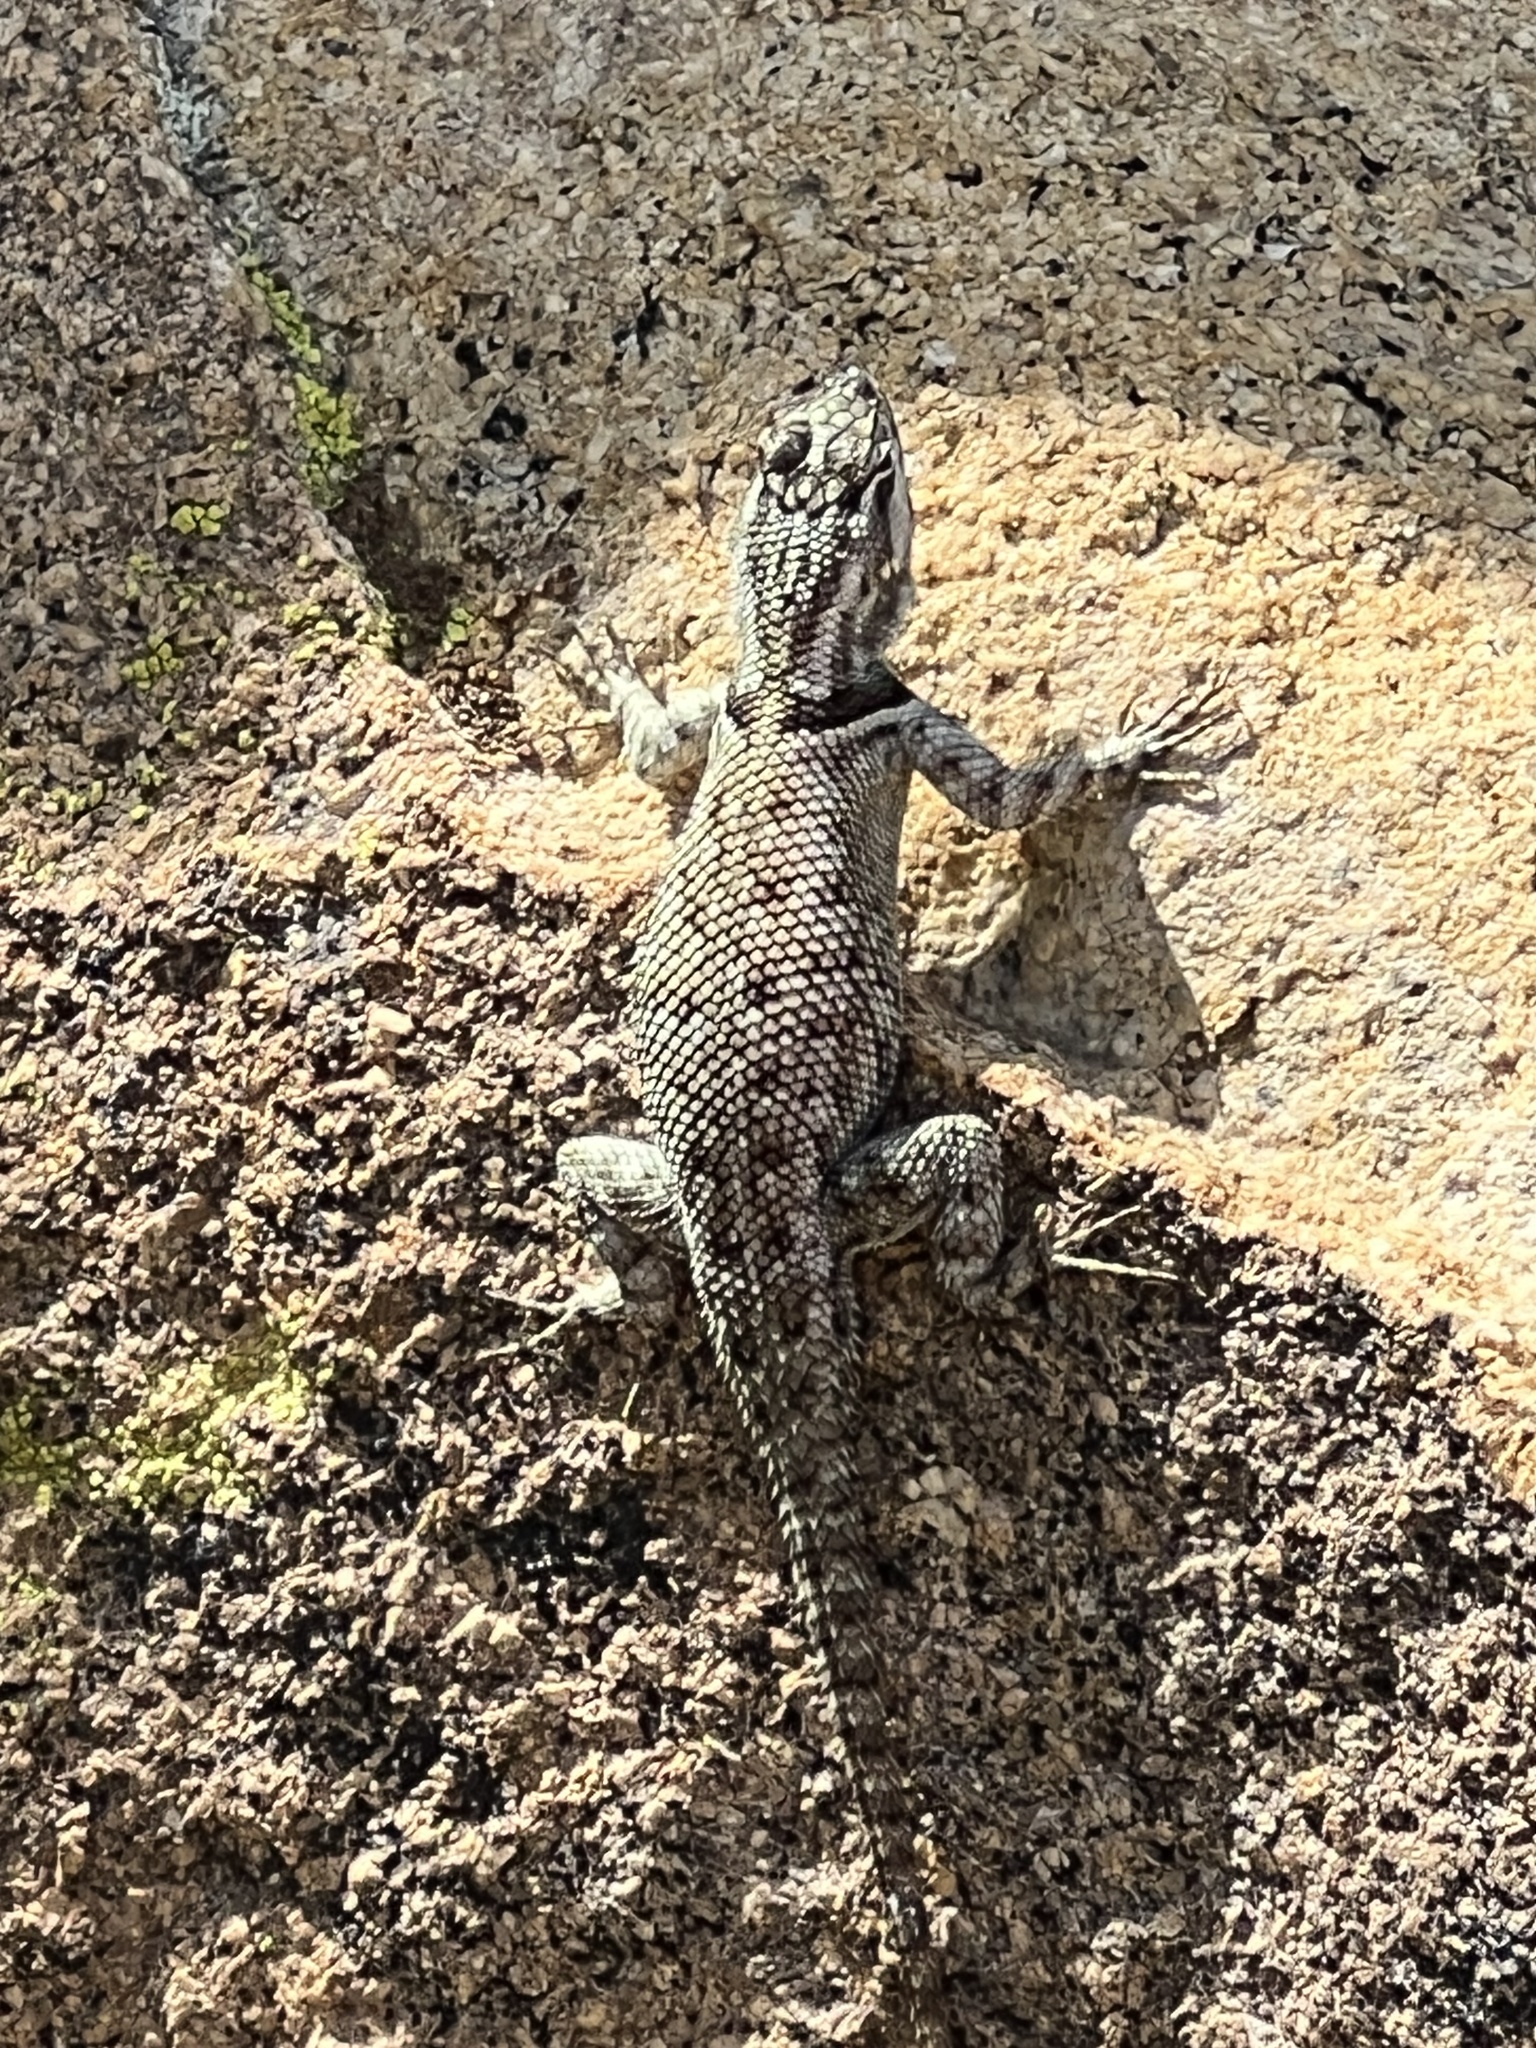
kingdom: Animalia
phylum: Chordata
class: Squamata
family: Phrynosomatidae
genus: Sceloporus
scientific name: Sceloporus jarrovii
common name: Yarrow's spiny lizard
